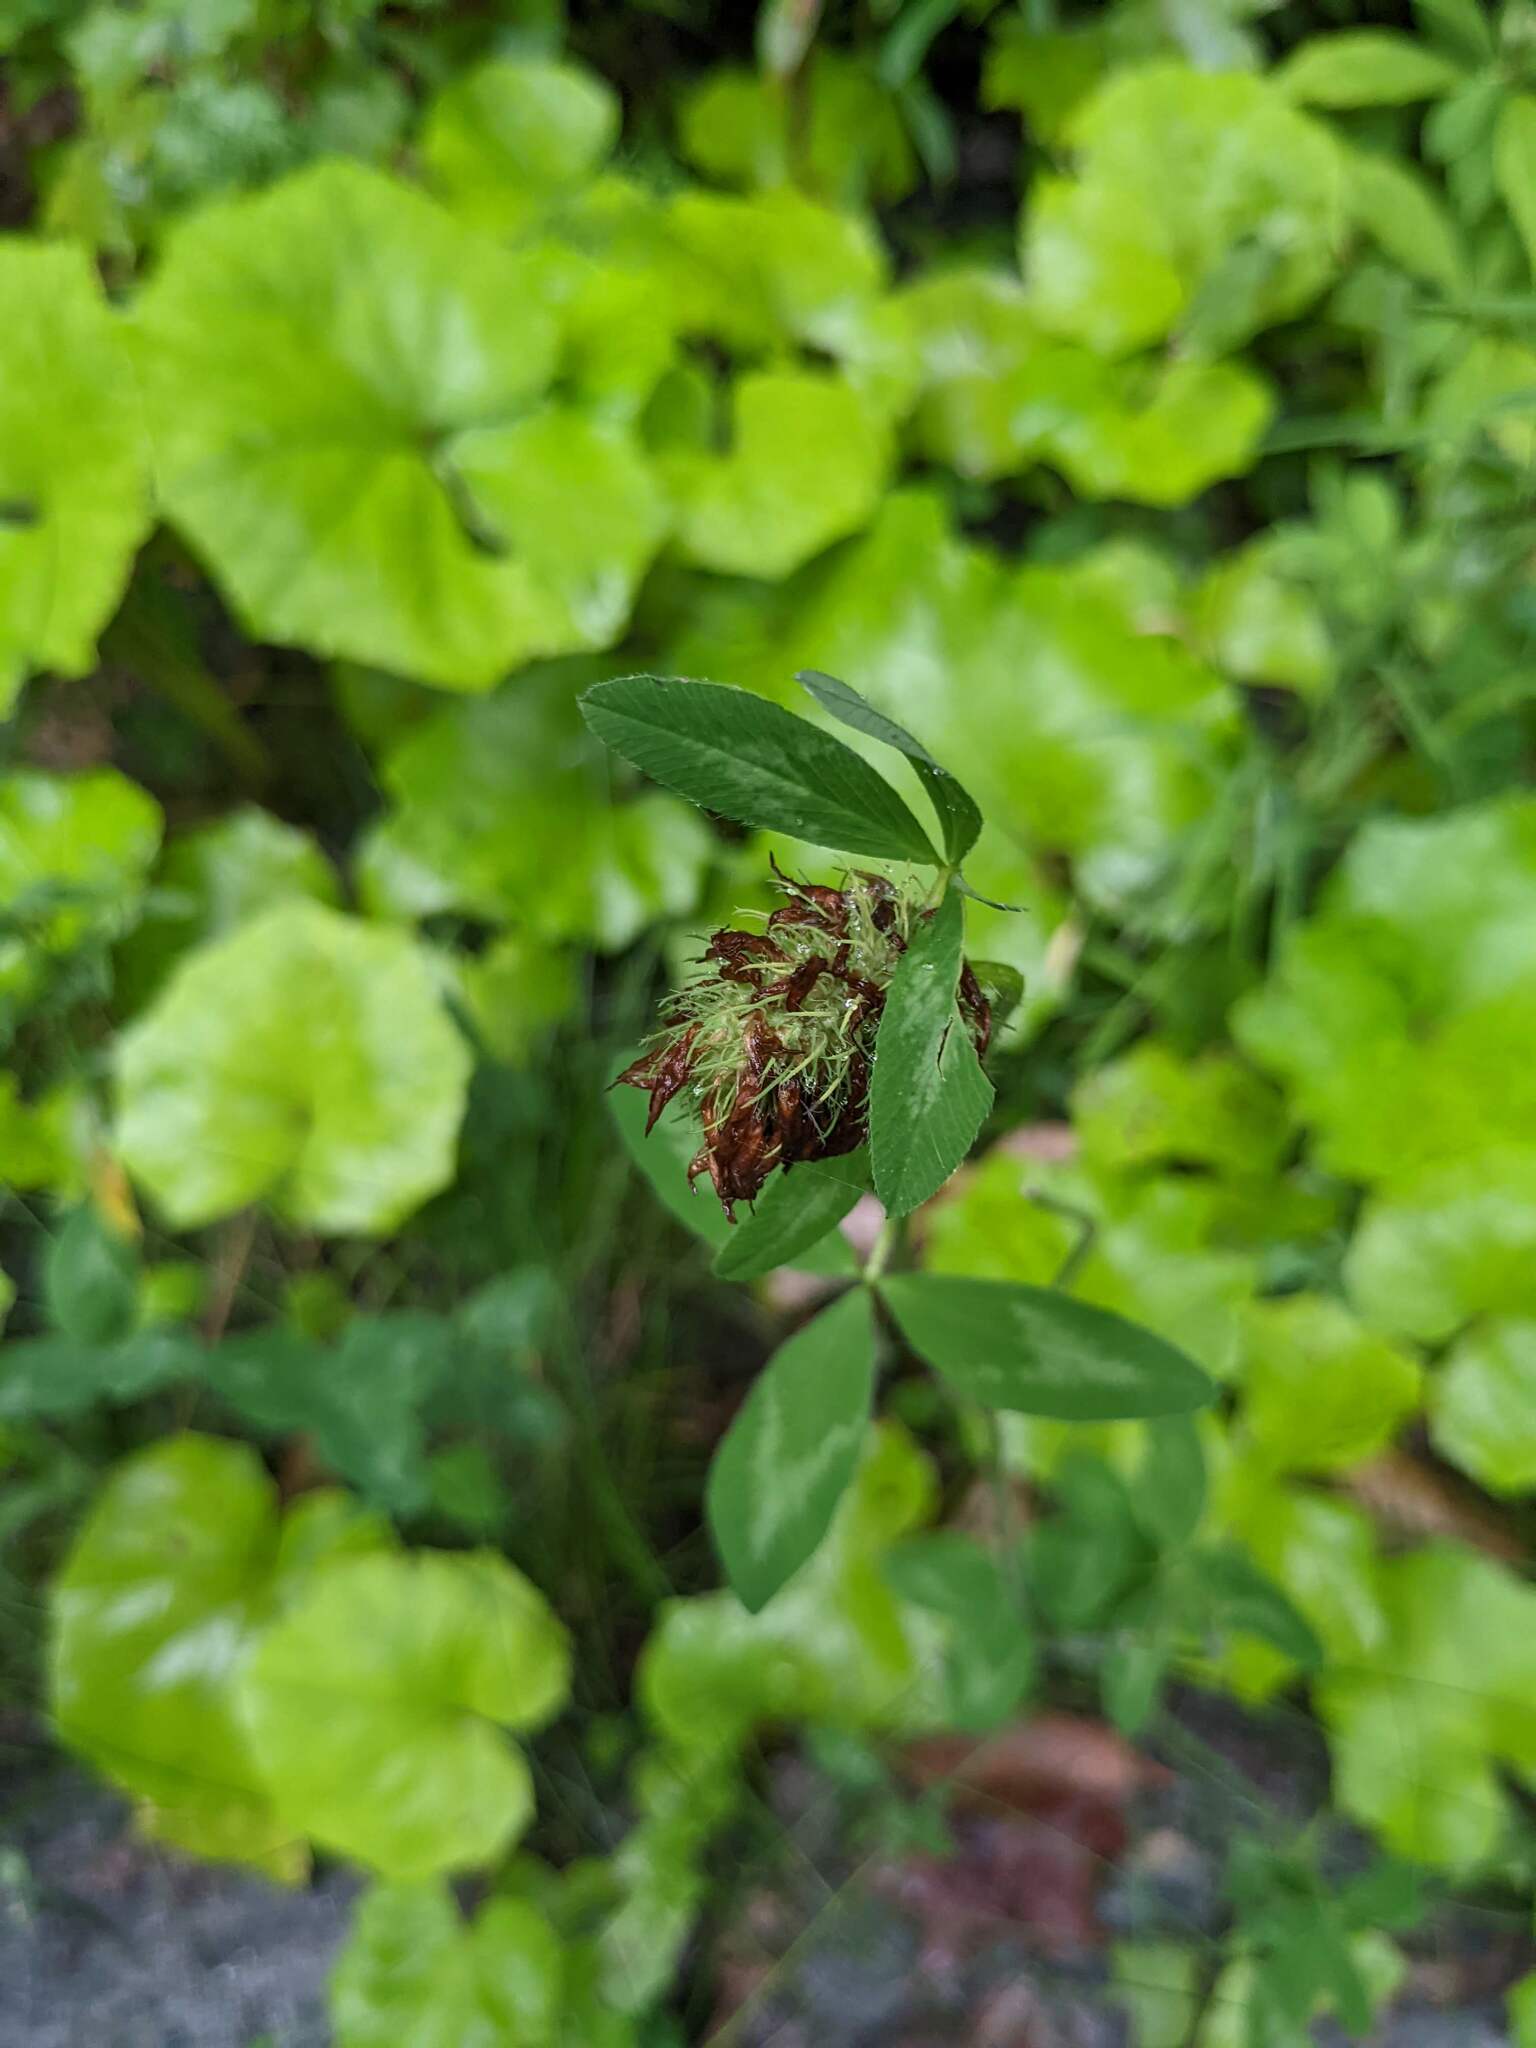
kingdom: Plantae
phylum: Tracheophyta
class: Magnoliopsida
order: Fabales
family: Fabaceae
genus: Trifolium
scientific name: Trifolium pratense
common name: Red clover
